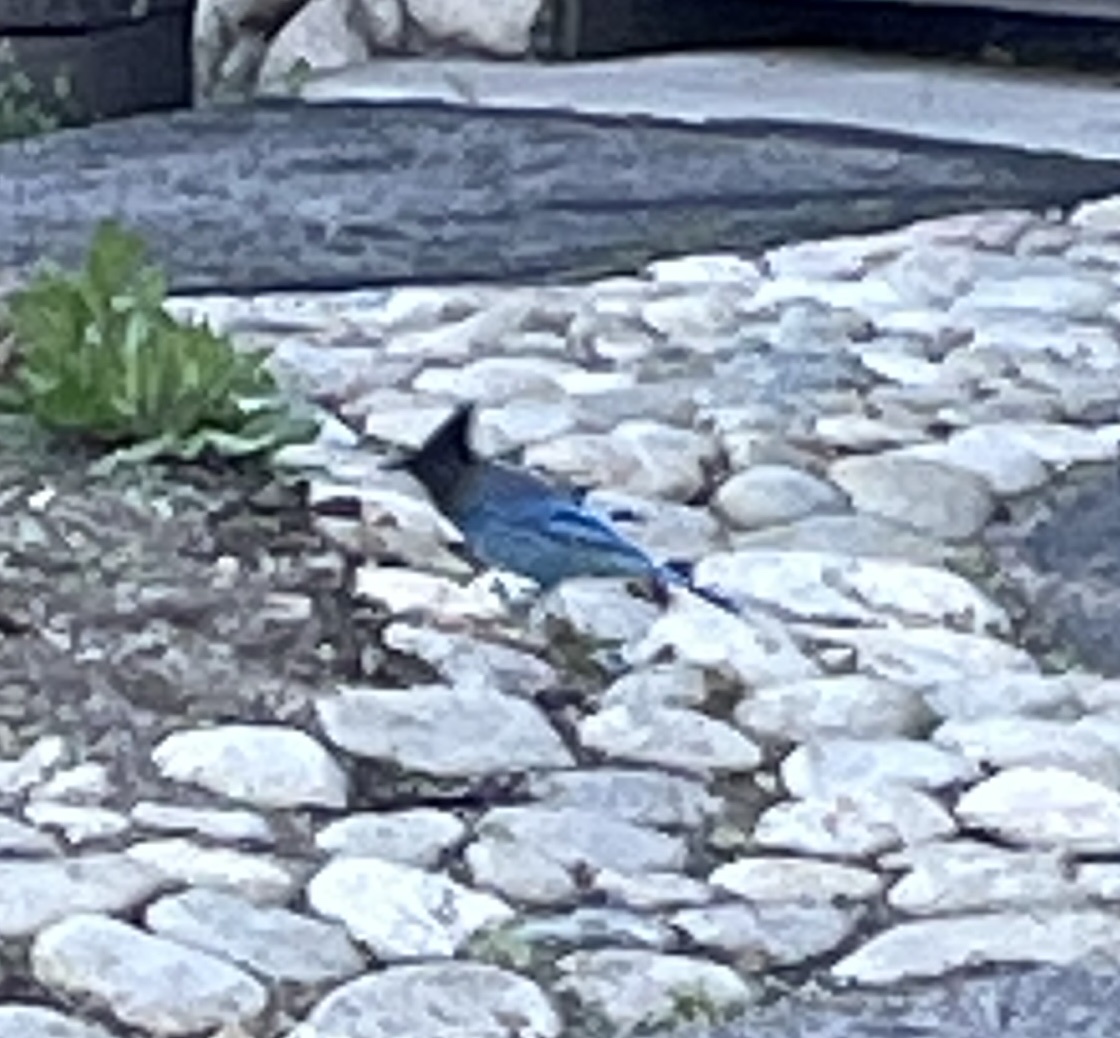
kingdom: Animalia
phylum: Chordata
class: Aves
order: Passeriformes
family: Corvidae
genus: Cyanocitta
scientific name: Cyanocitta stelleri
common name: Steller's jay
